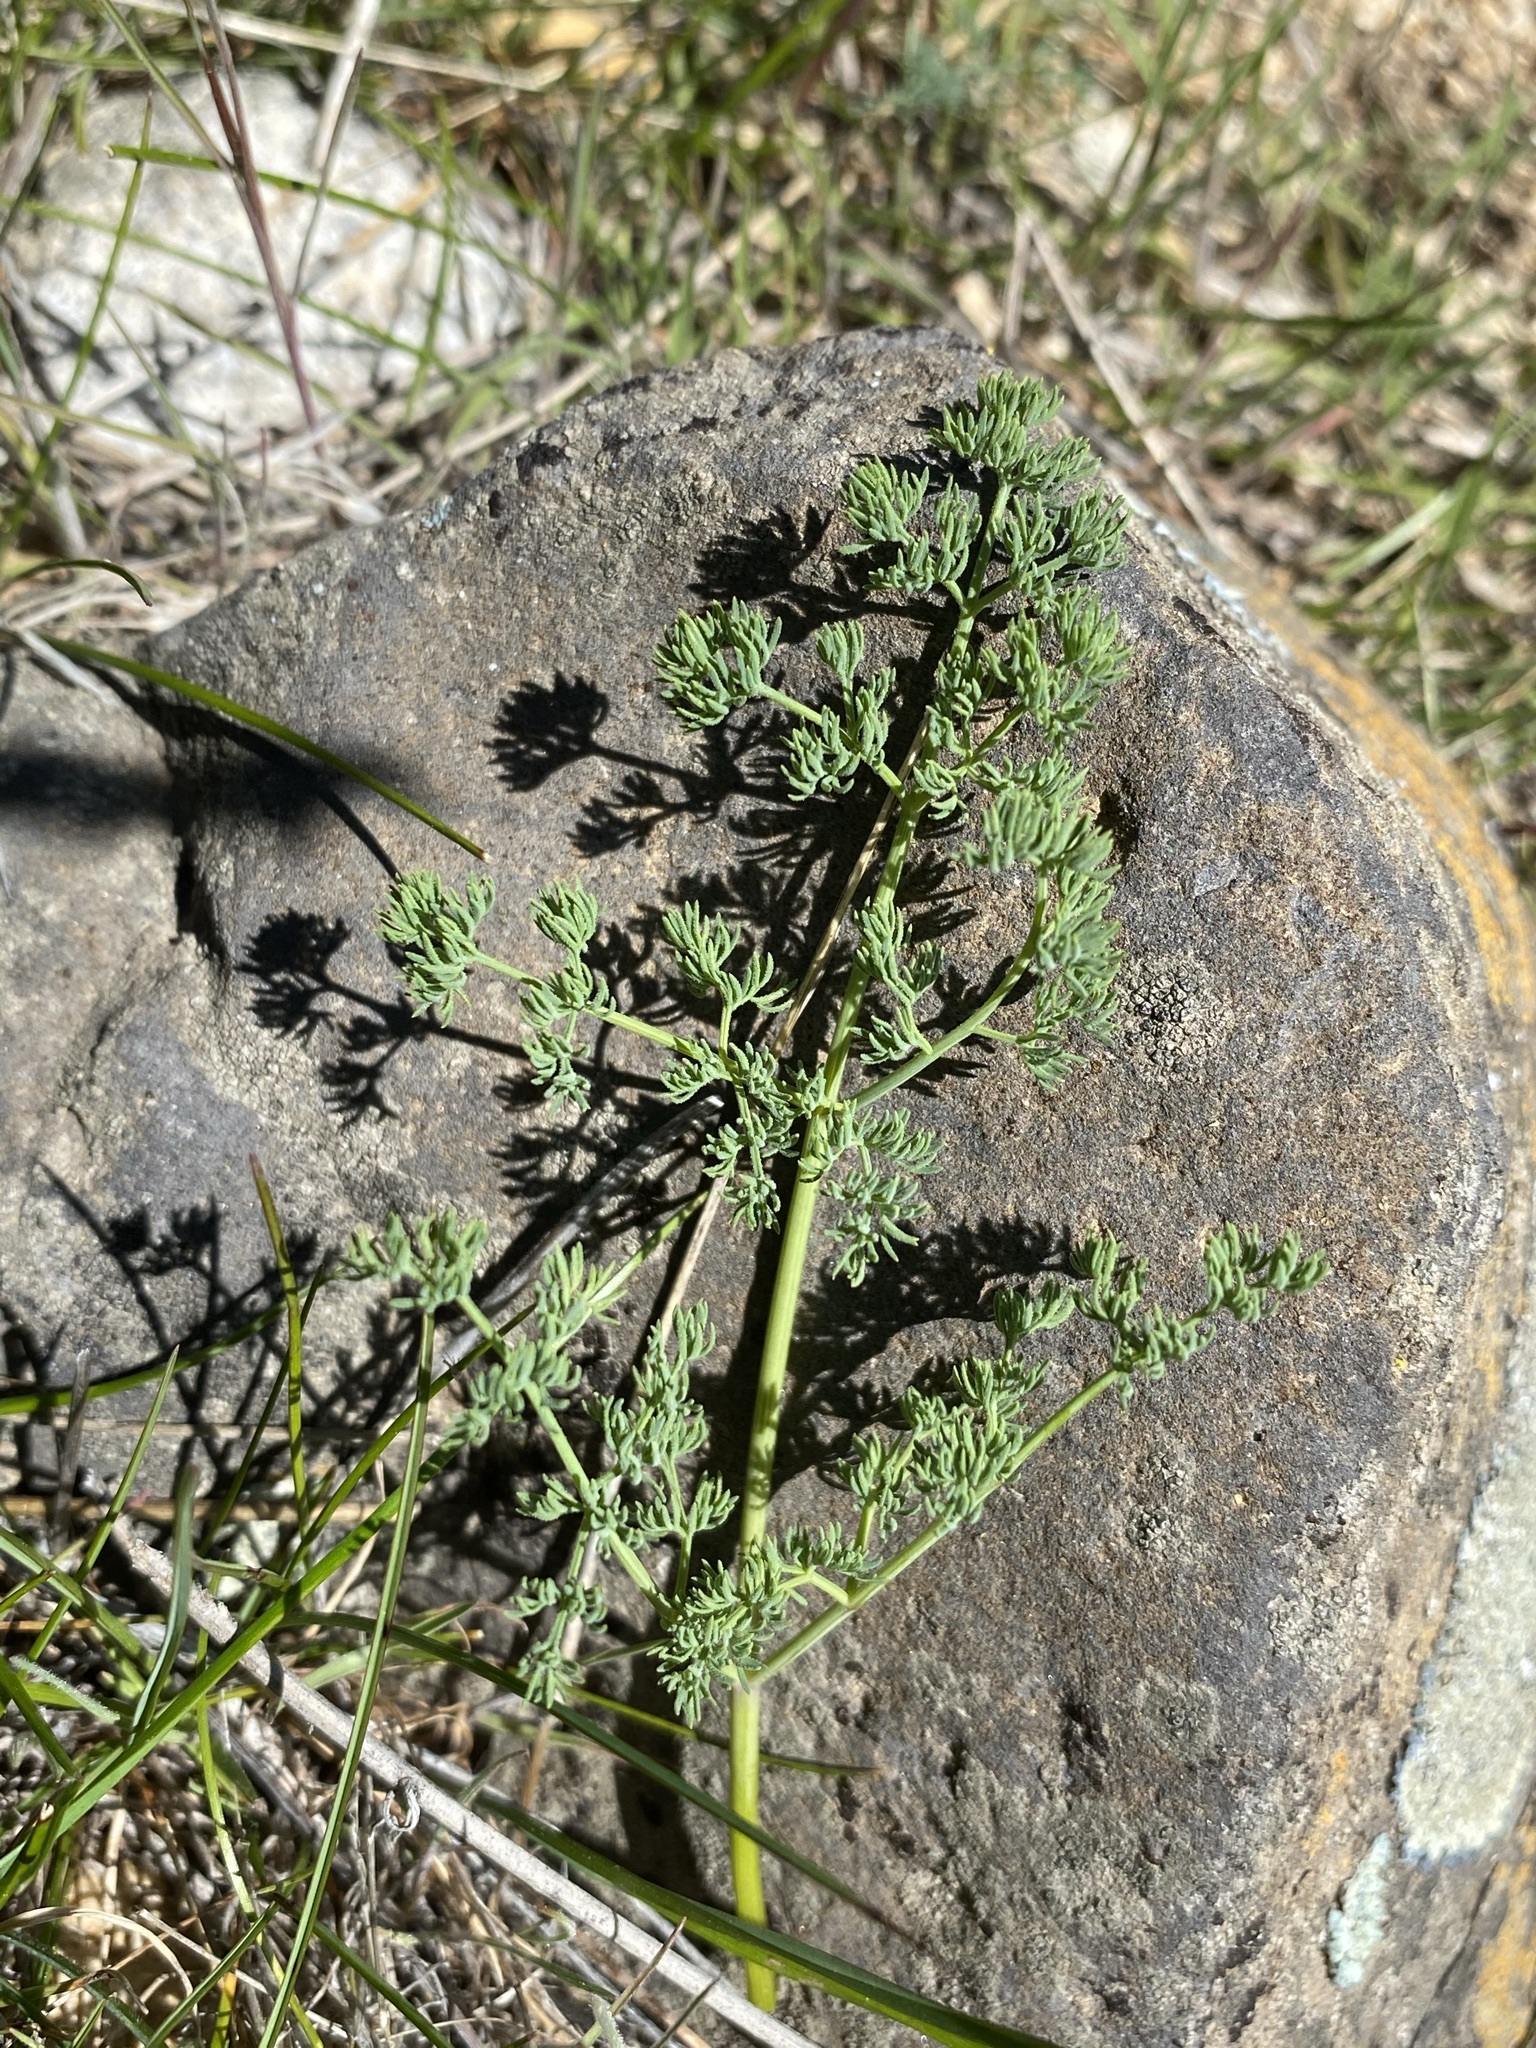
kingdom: Plantae
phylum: Tracheophyta
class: Magnoliopsida
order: Apiales
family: Apiaceae
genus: Lomatium
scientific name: Lomatium papilioniferum
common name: Butterfly lomatium
